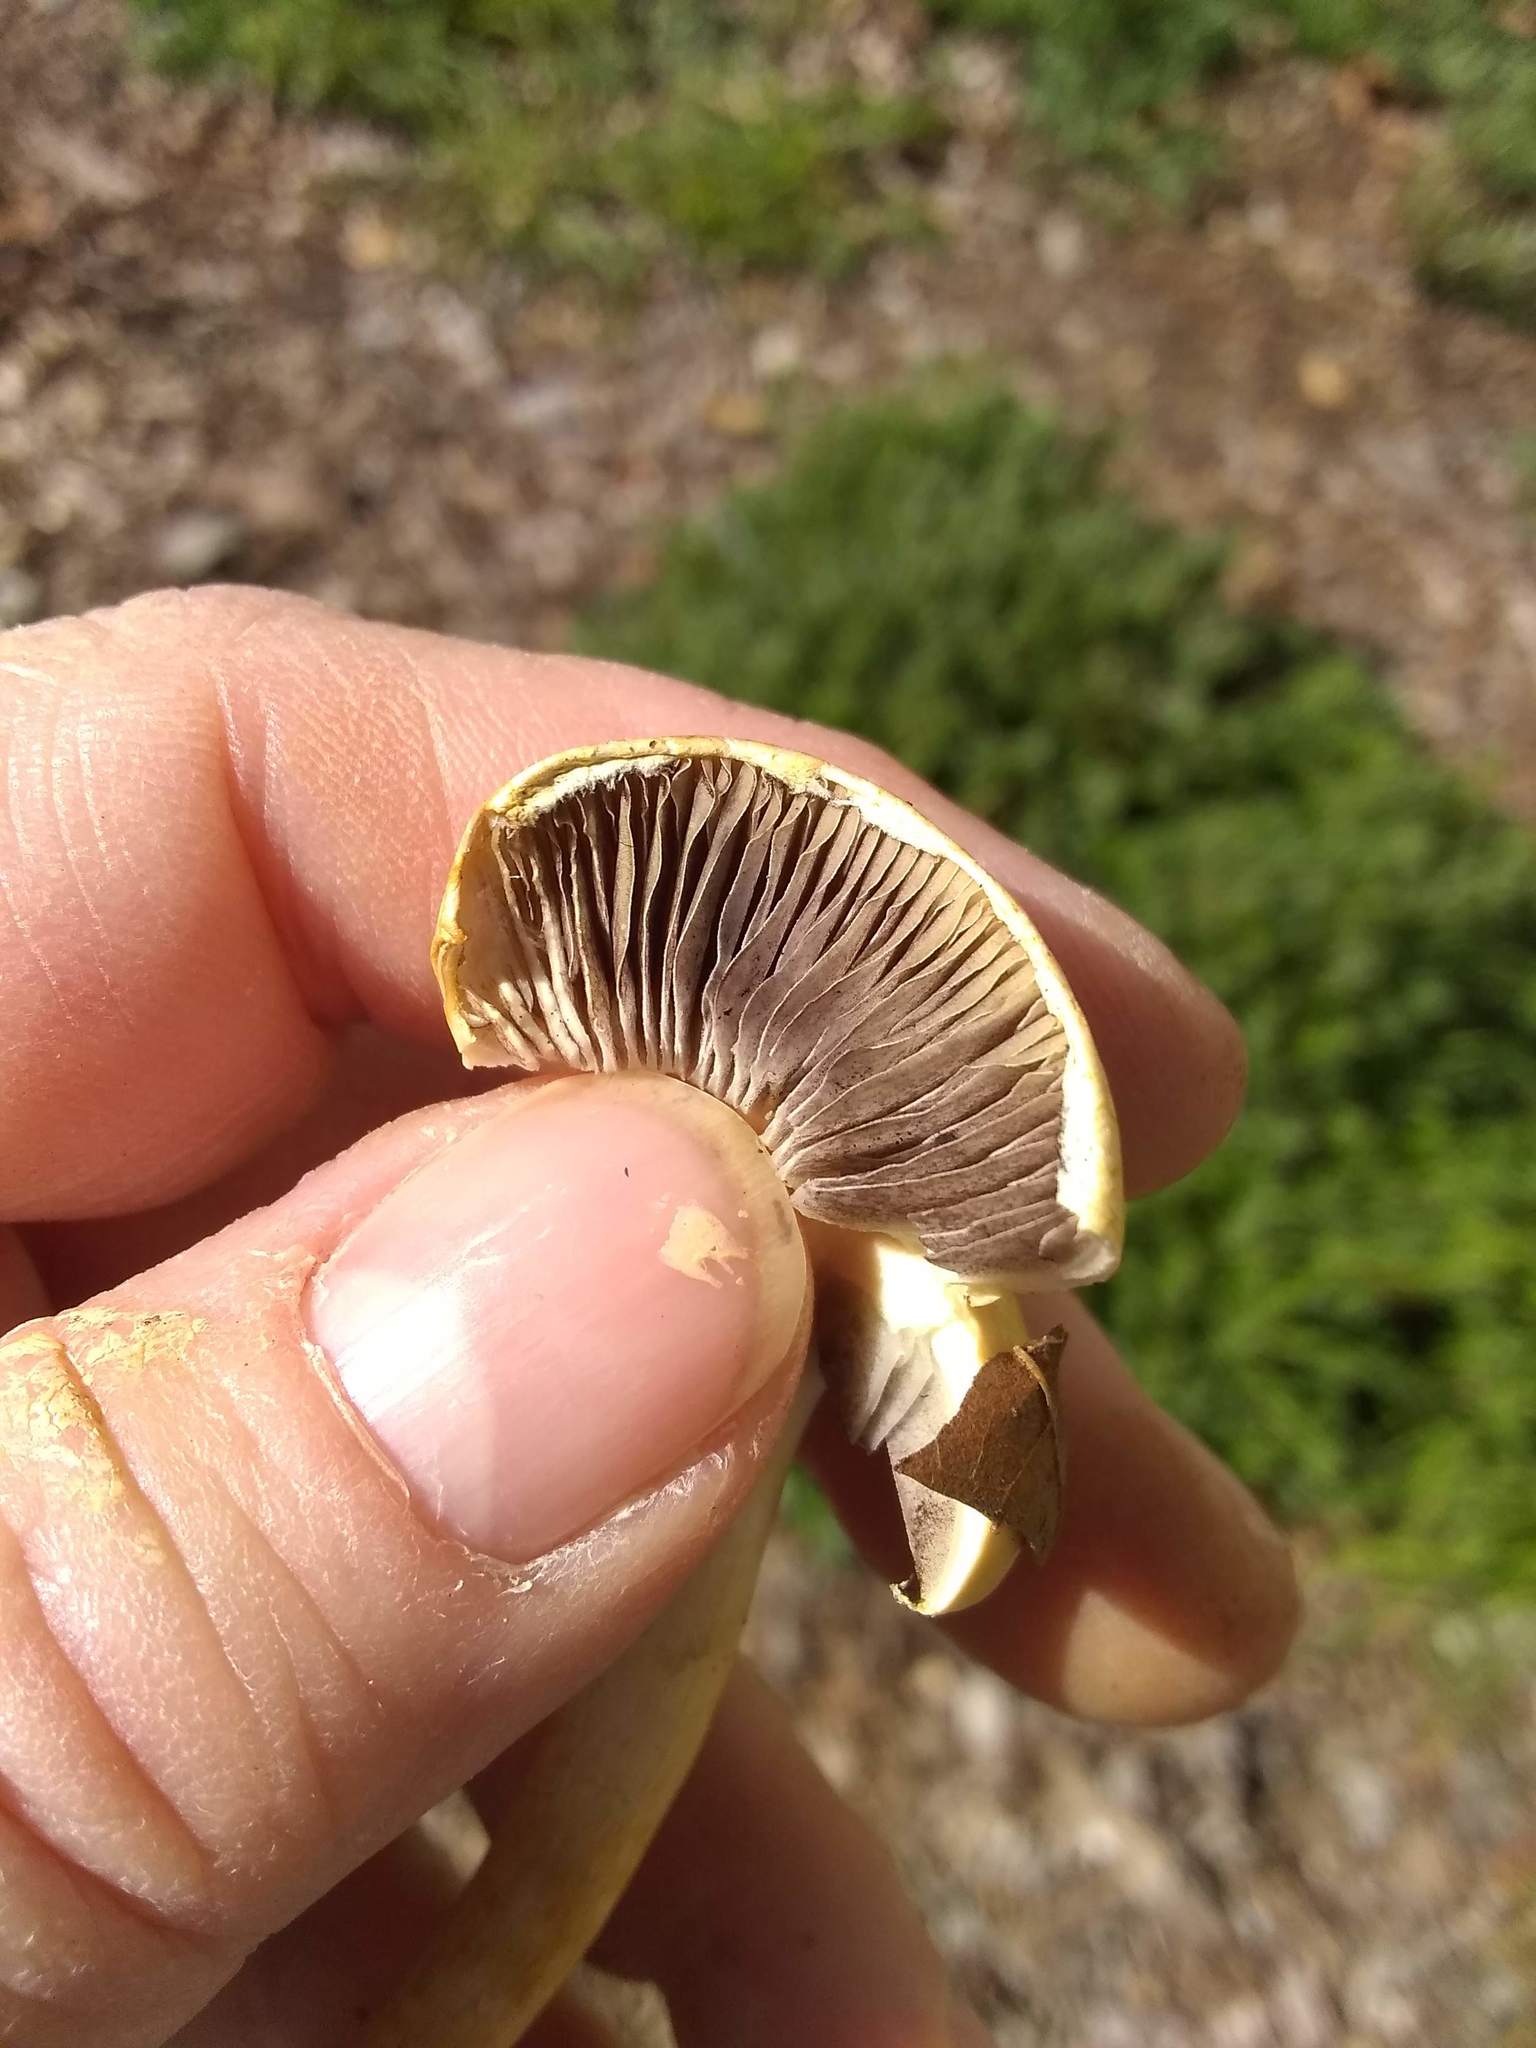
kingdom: Fungi
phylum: Basidiomycota
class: Agaricomycetes
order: Agaricales
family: Strophariaceae
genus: Leratiomyces
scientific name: Leratiomyces percevalii
